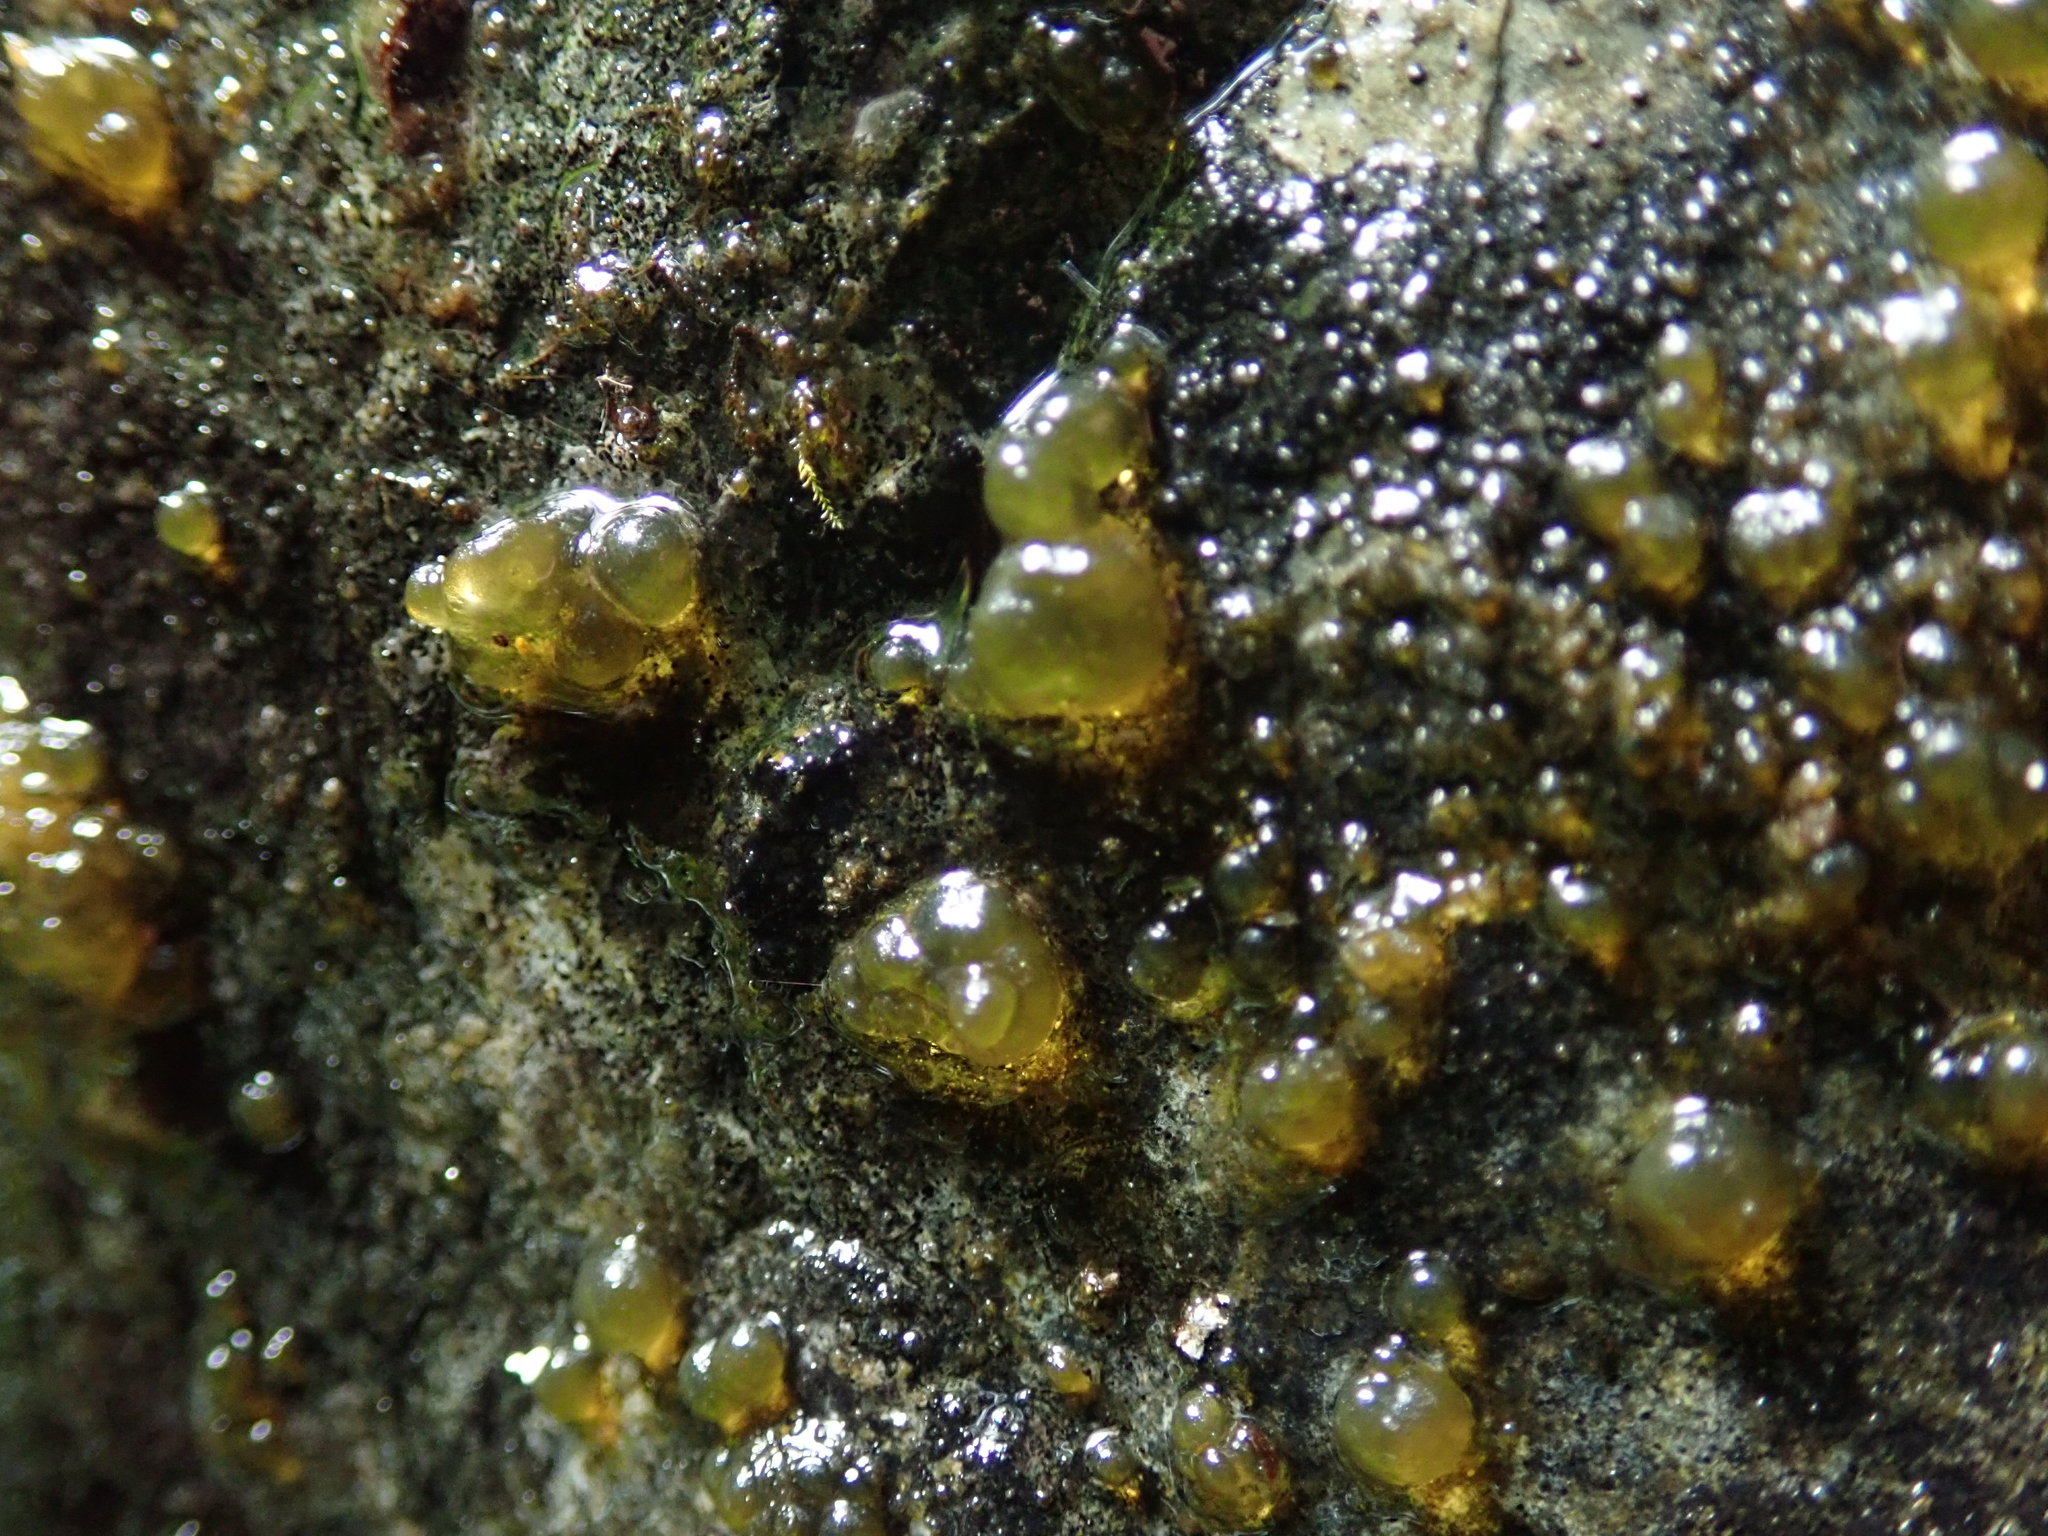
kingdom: Bacteria
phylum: Cyanobacteria
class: Cyanobacteriia
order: Cyanobacteriales
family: Nostocaceae
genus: Nostoc
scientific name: Nostoc
